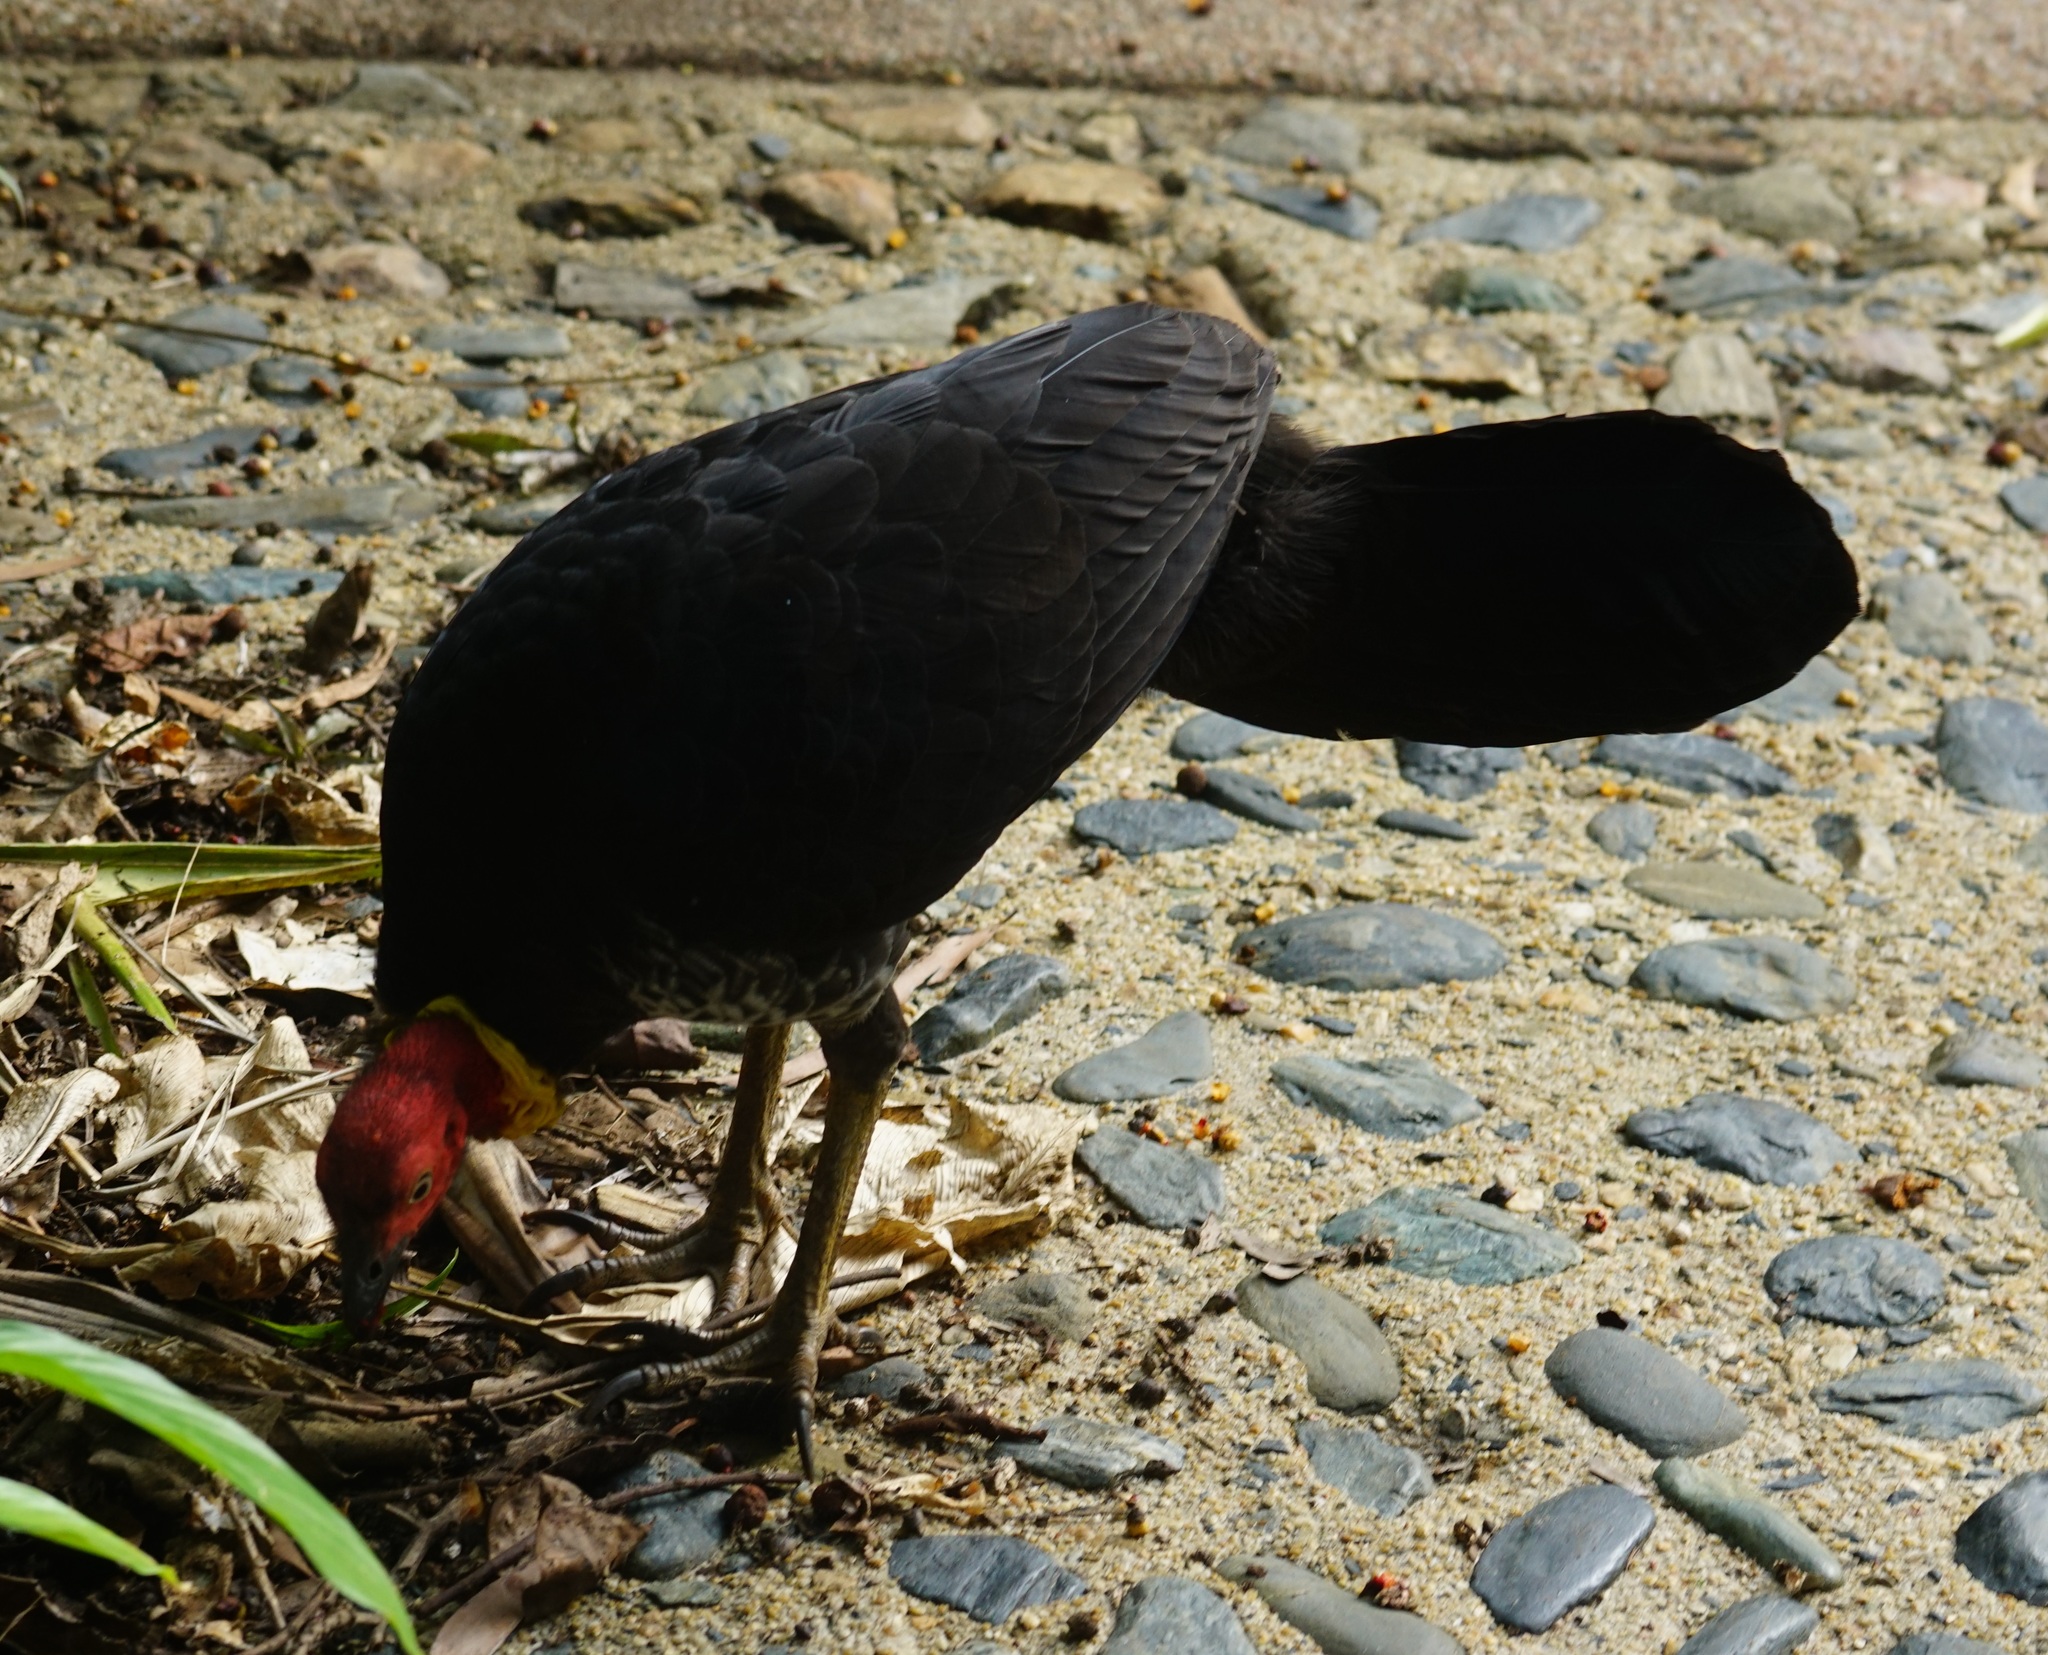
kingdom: Animalia
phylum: Chordata
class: Aves
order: Galliformes
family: Megapodiidae
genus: Alectura
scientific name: Alectura lathami
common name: Australian brushturkey
